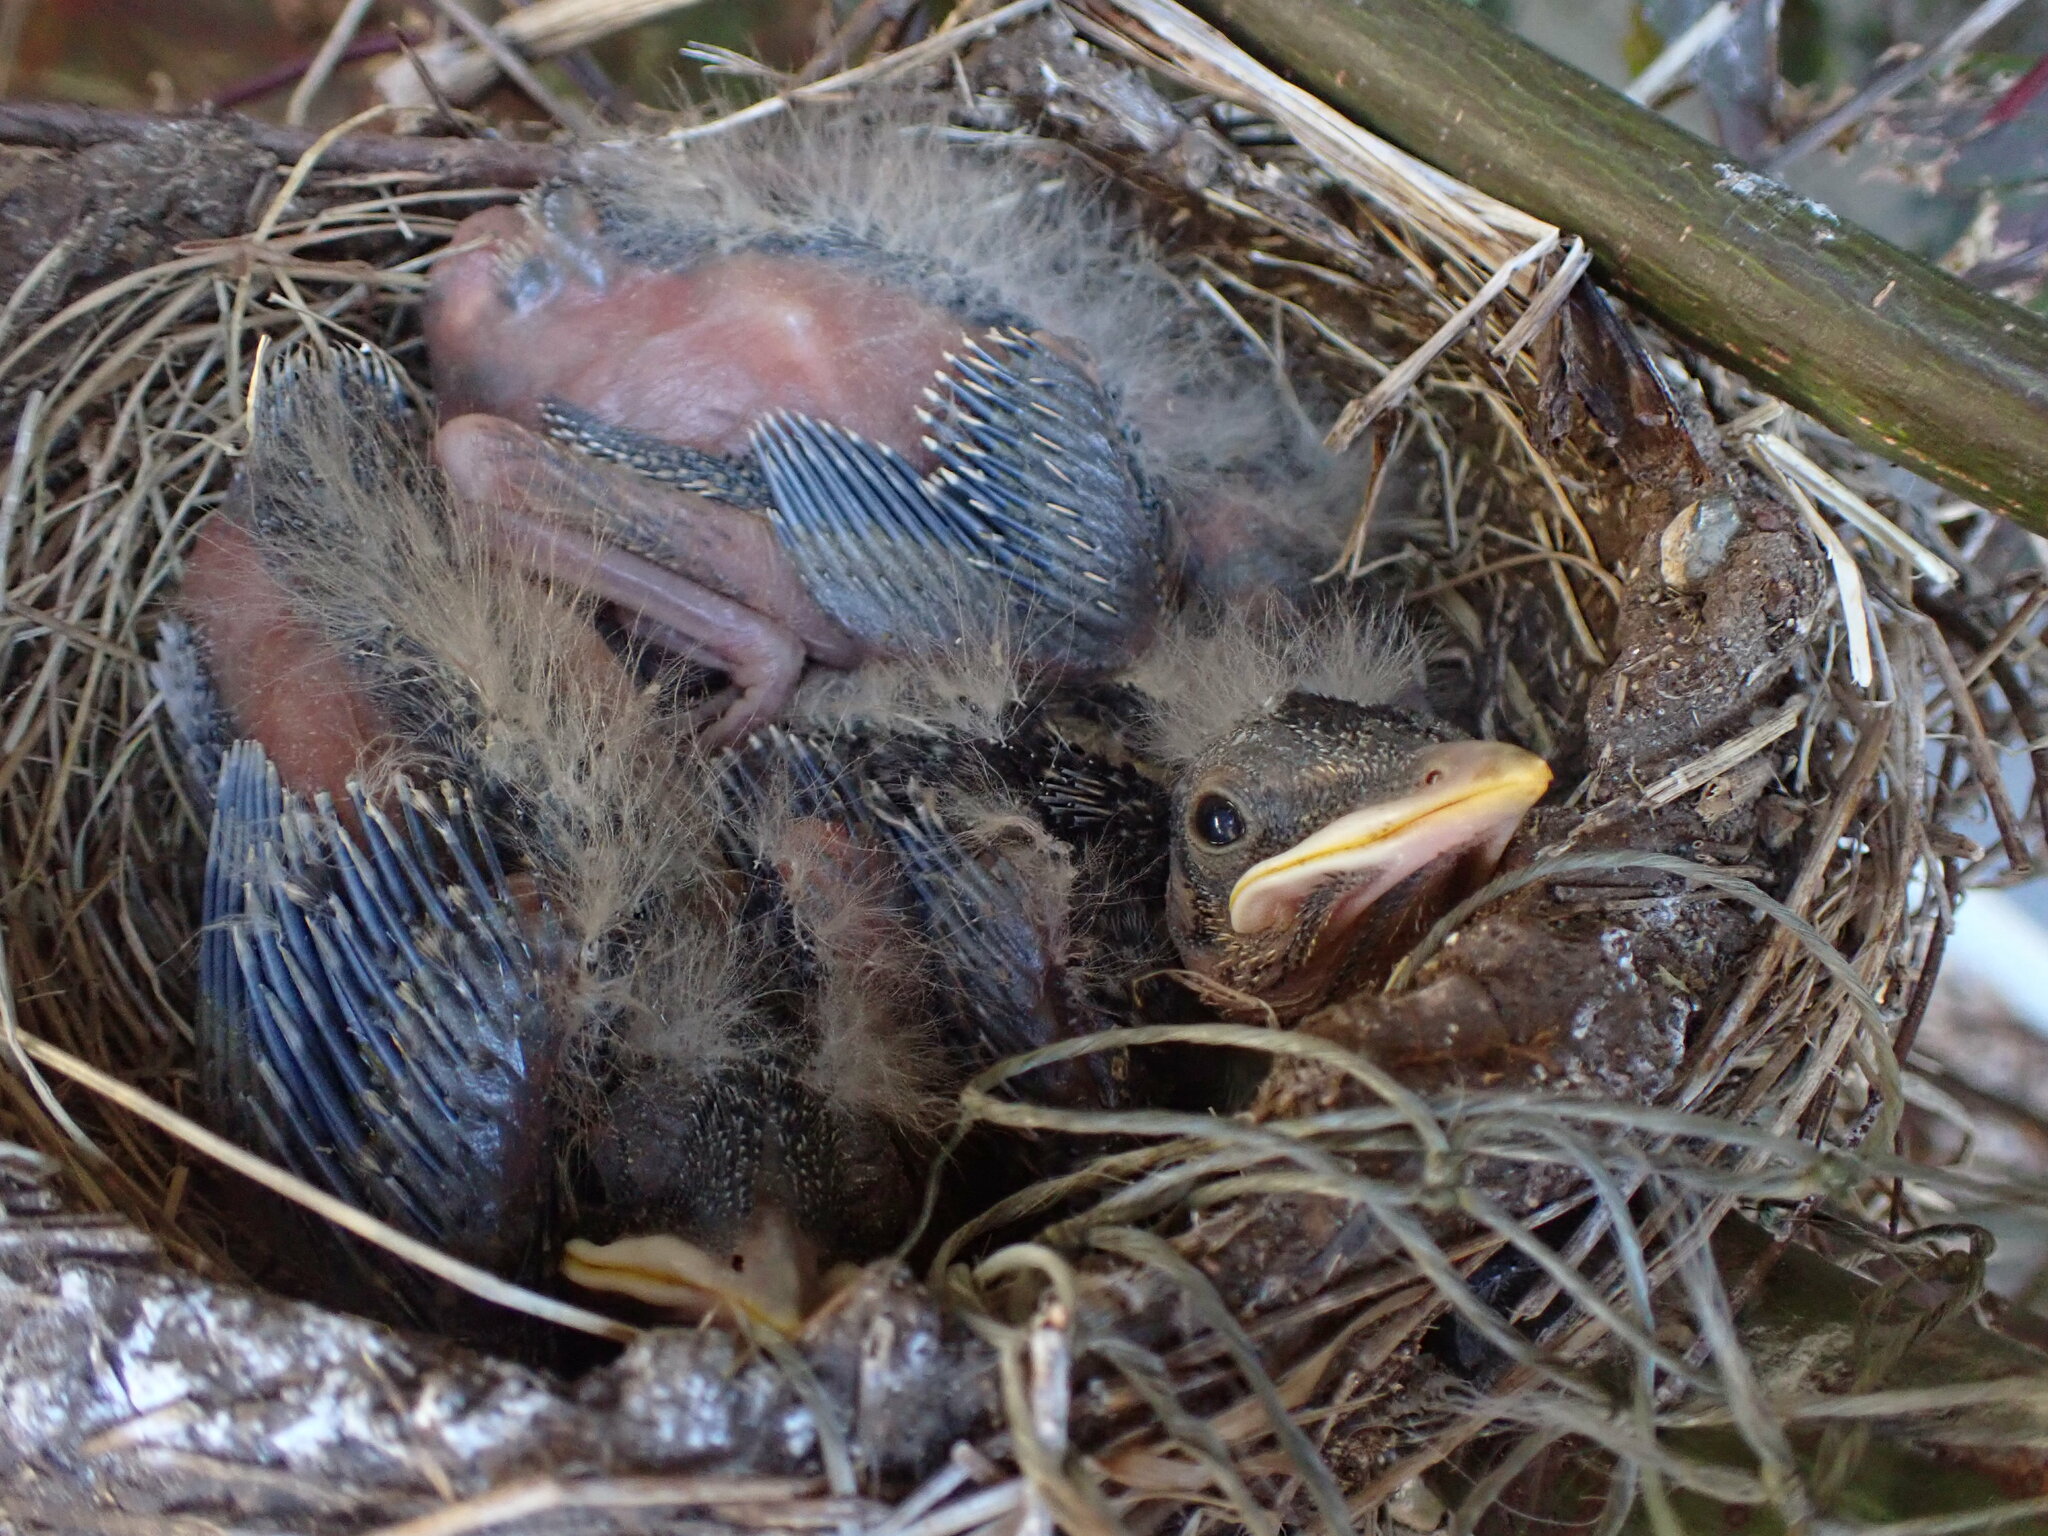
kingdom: Animalia
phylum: Chordata
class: Aves
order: Passeriformes
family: Turdidae
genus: Turdus
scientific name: Turdus migratorius
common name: American robin
